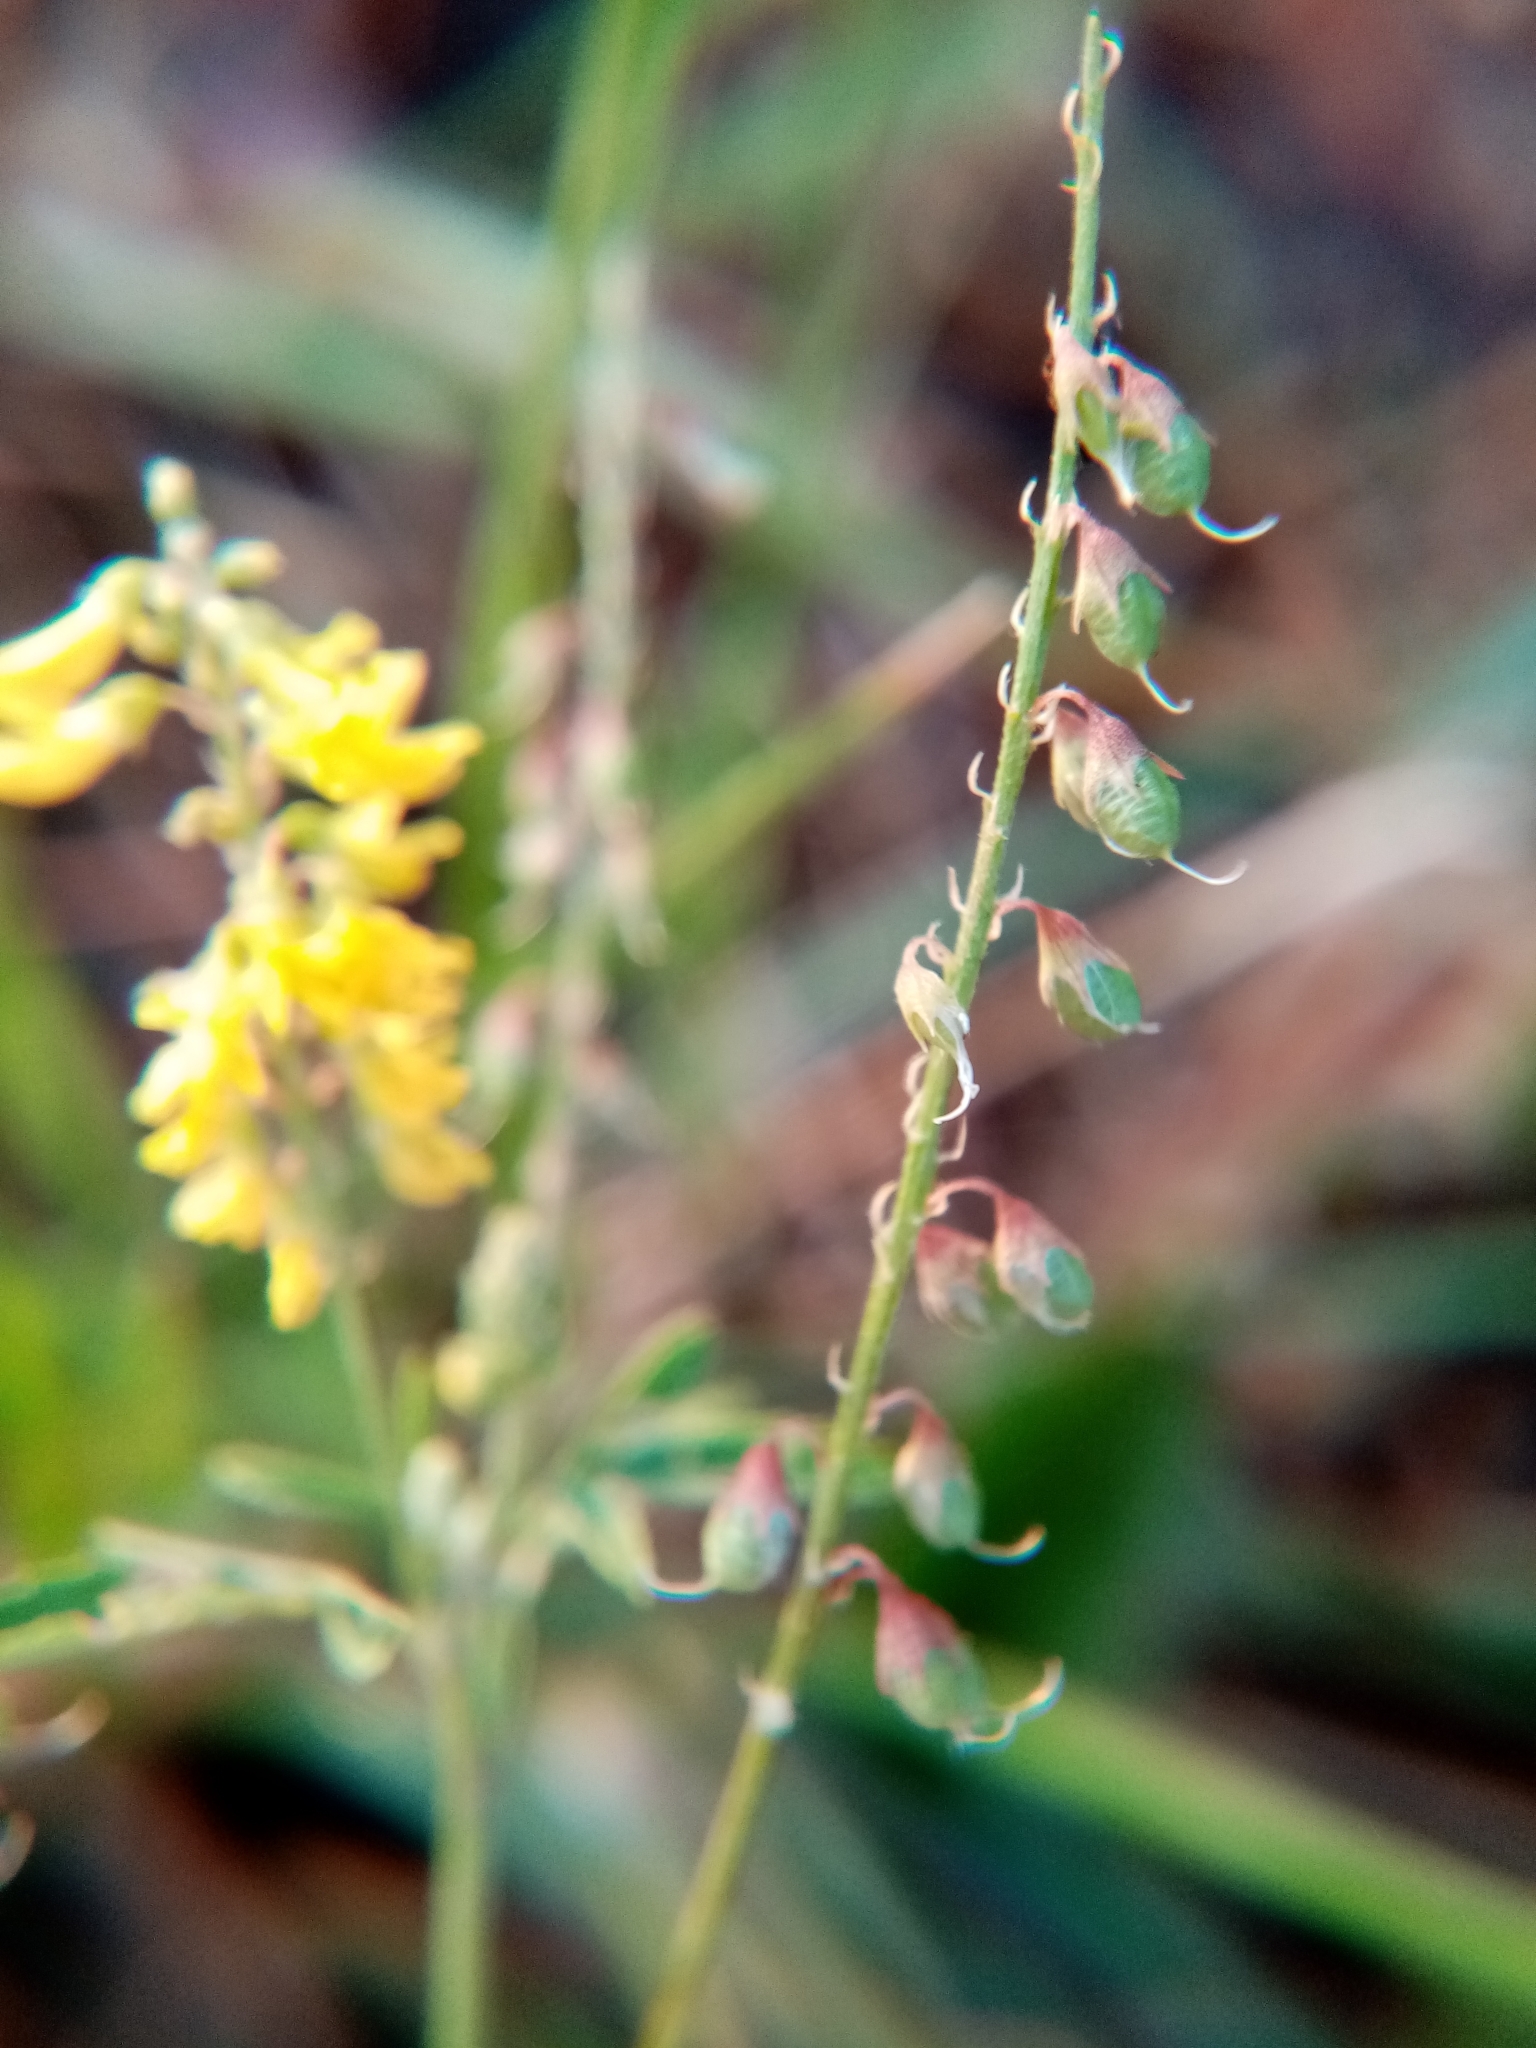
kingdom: Plantae
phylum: Tracheophyta
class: Magnoliopsida
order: Fabales
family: Fabaceae
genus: Melilotus
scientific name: Melilotus officinalis
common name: Sweetclover
